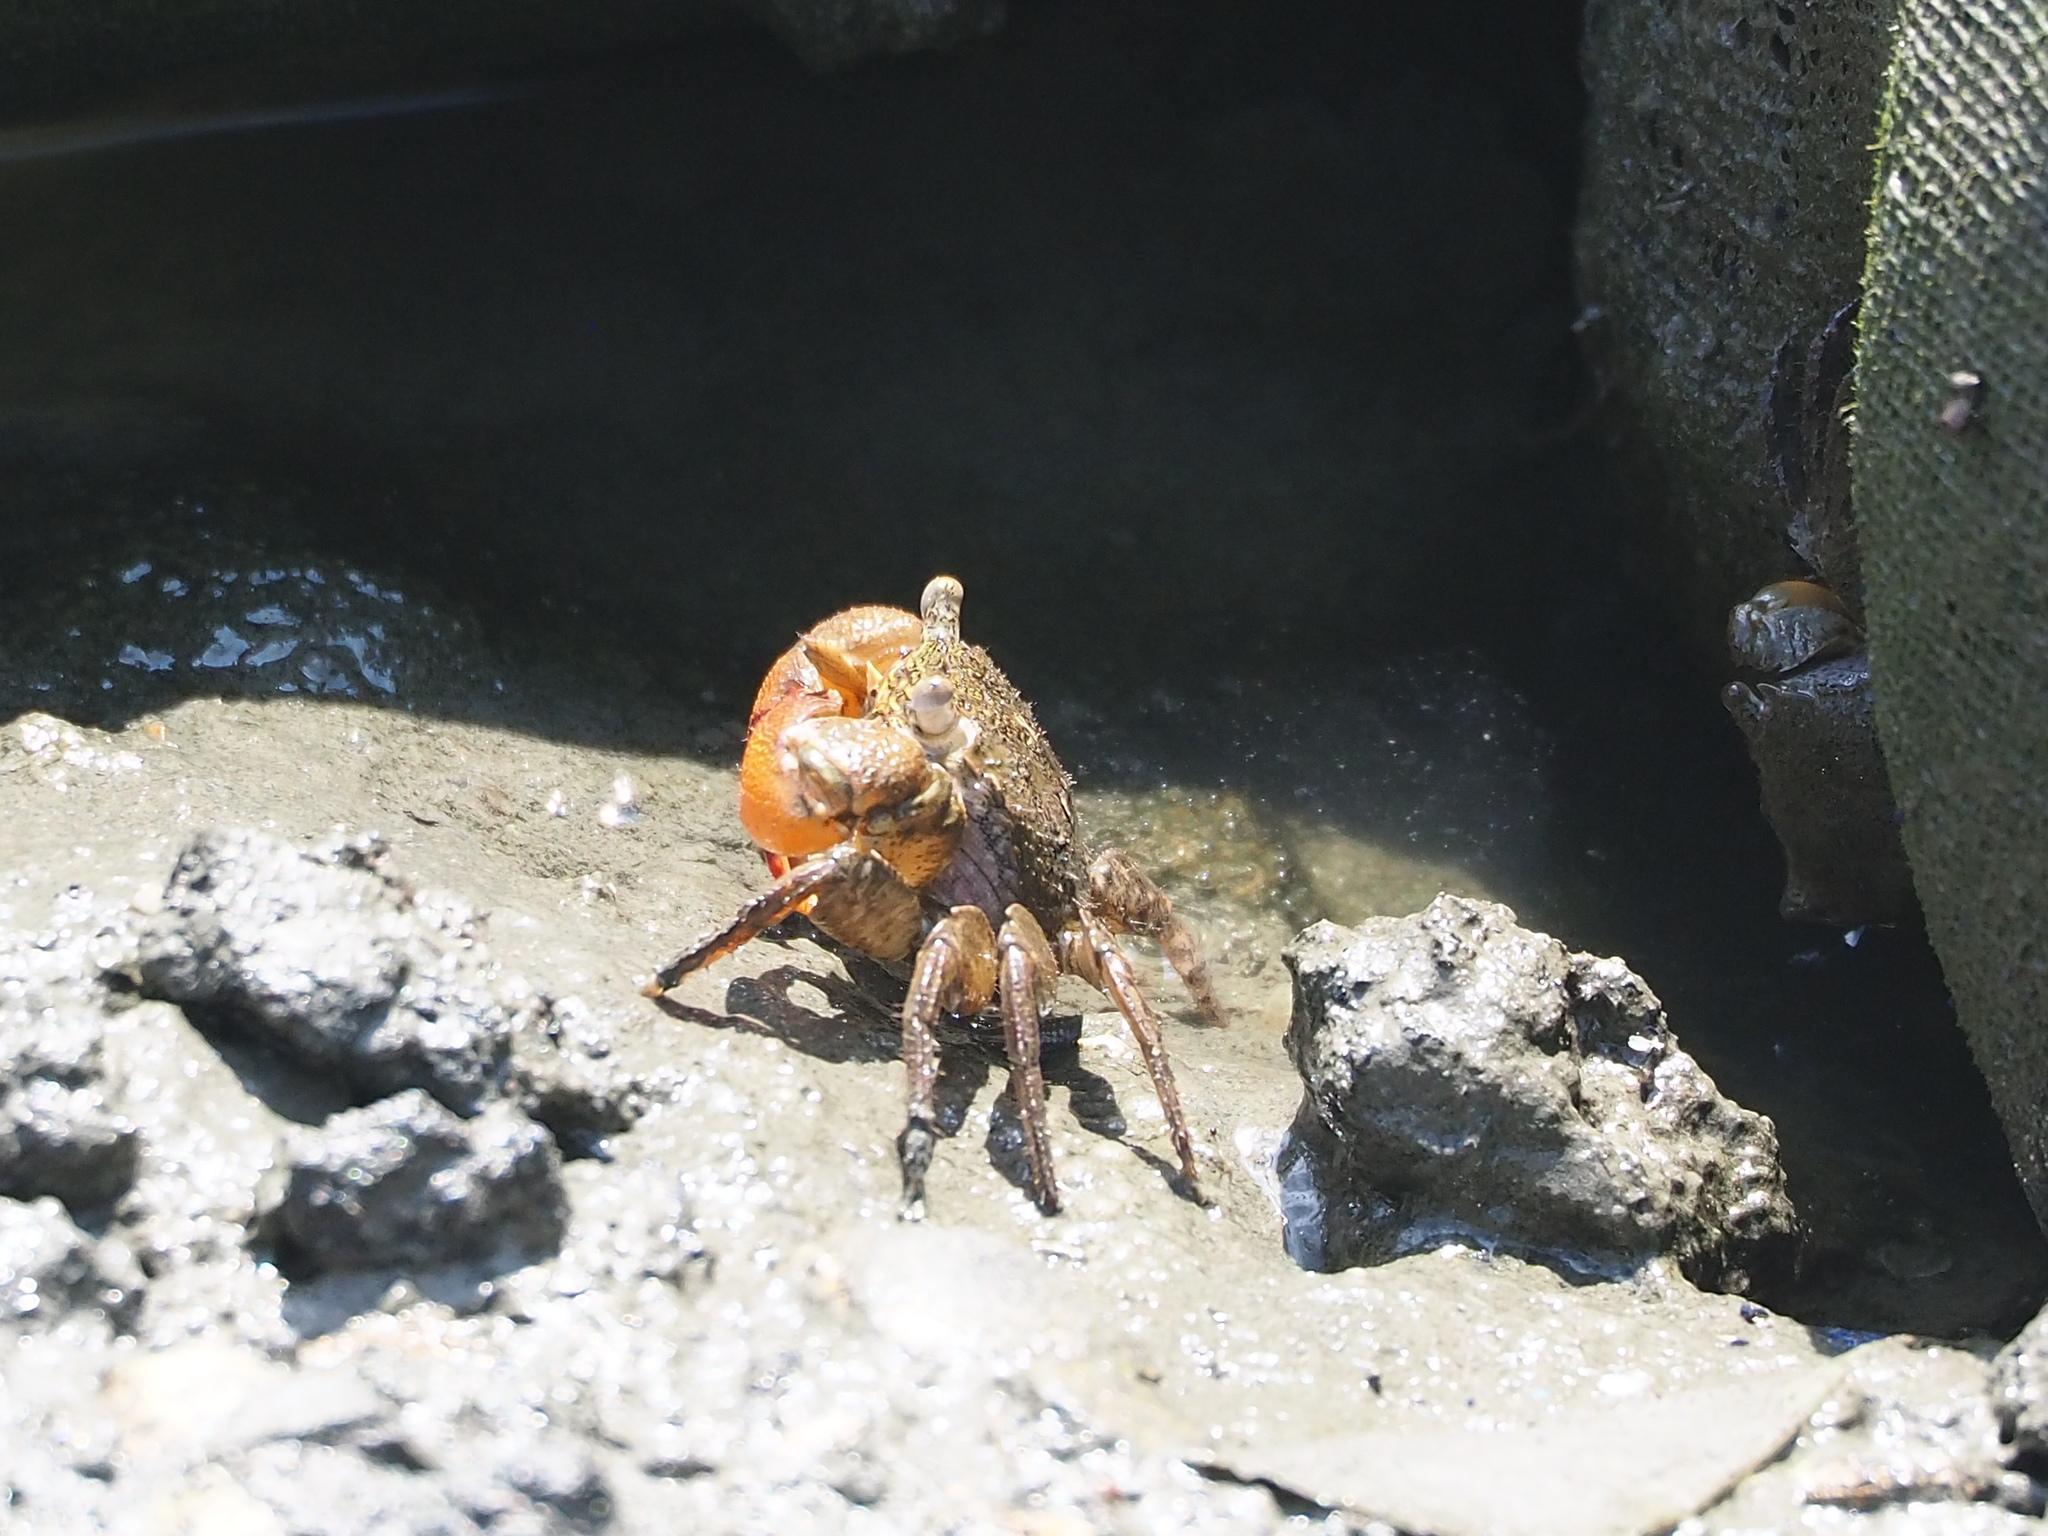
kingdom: Animalia
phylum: Arthropoda
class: Malacostraca
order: Decapoda
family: Sesarmidae
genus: Parasesarma
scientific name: Parasesarma insulare
